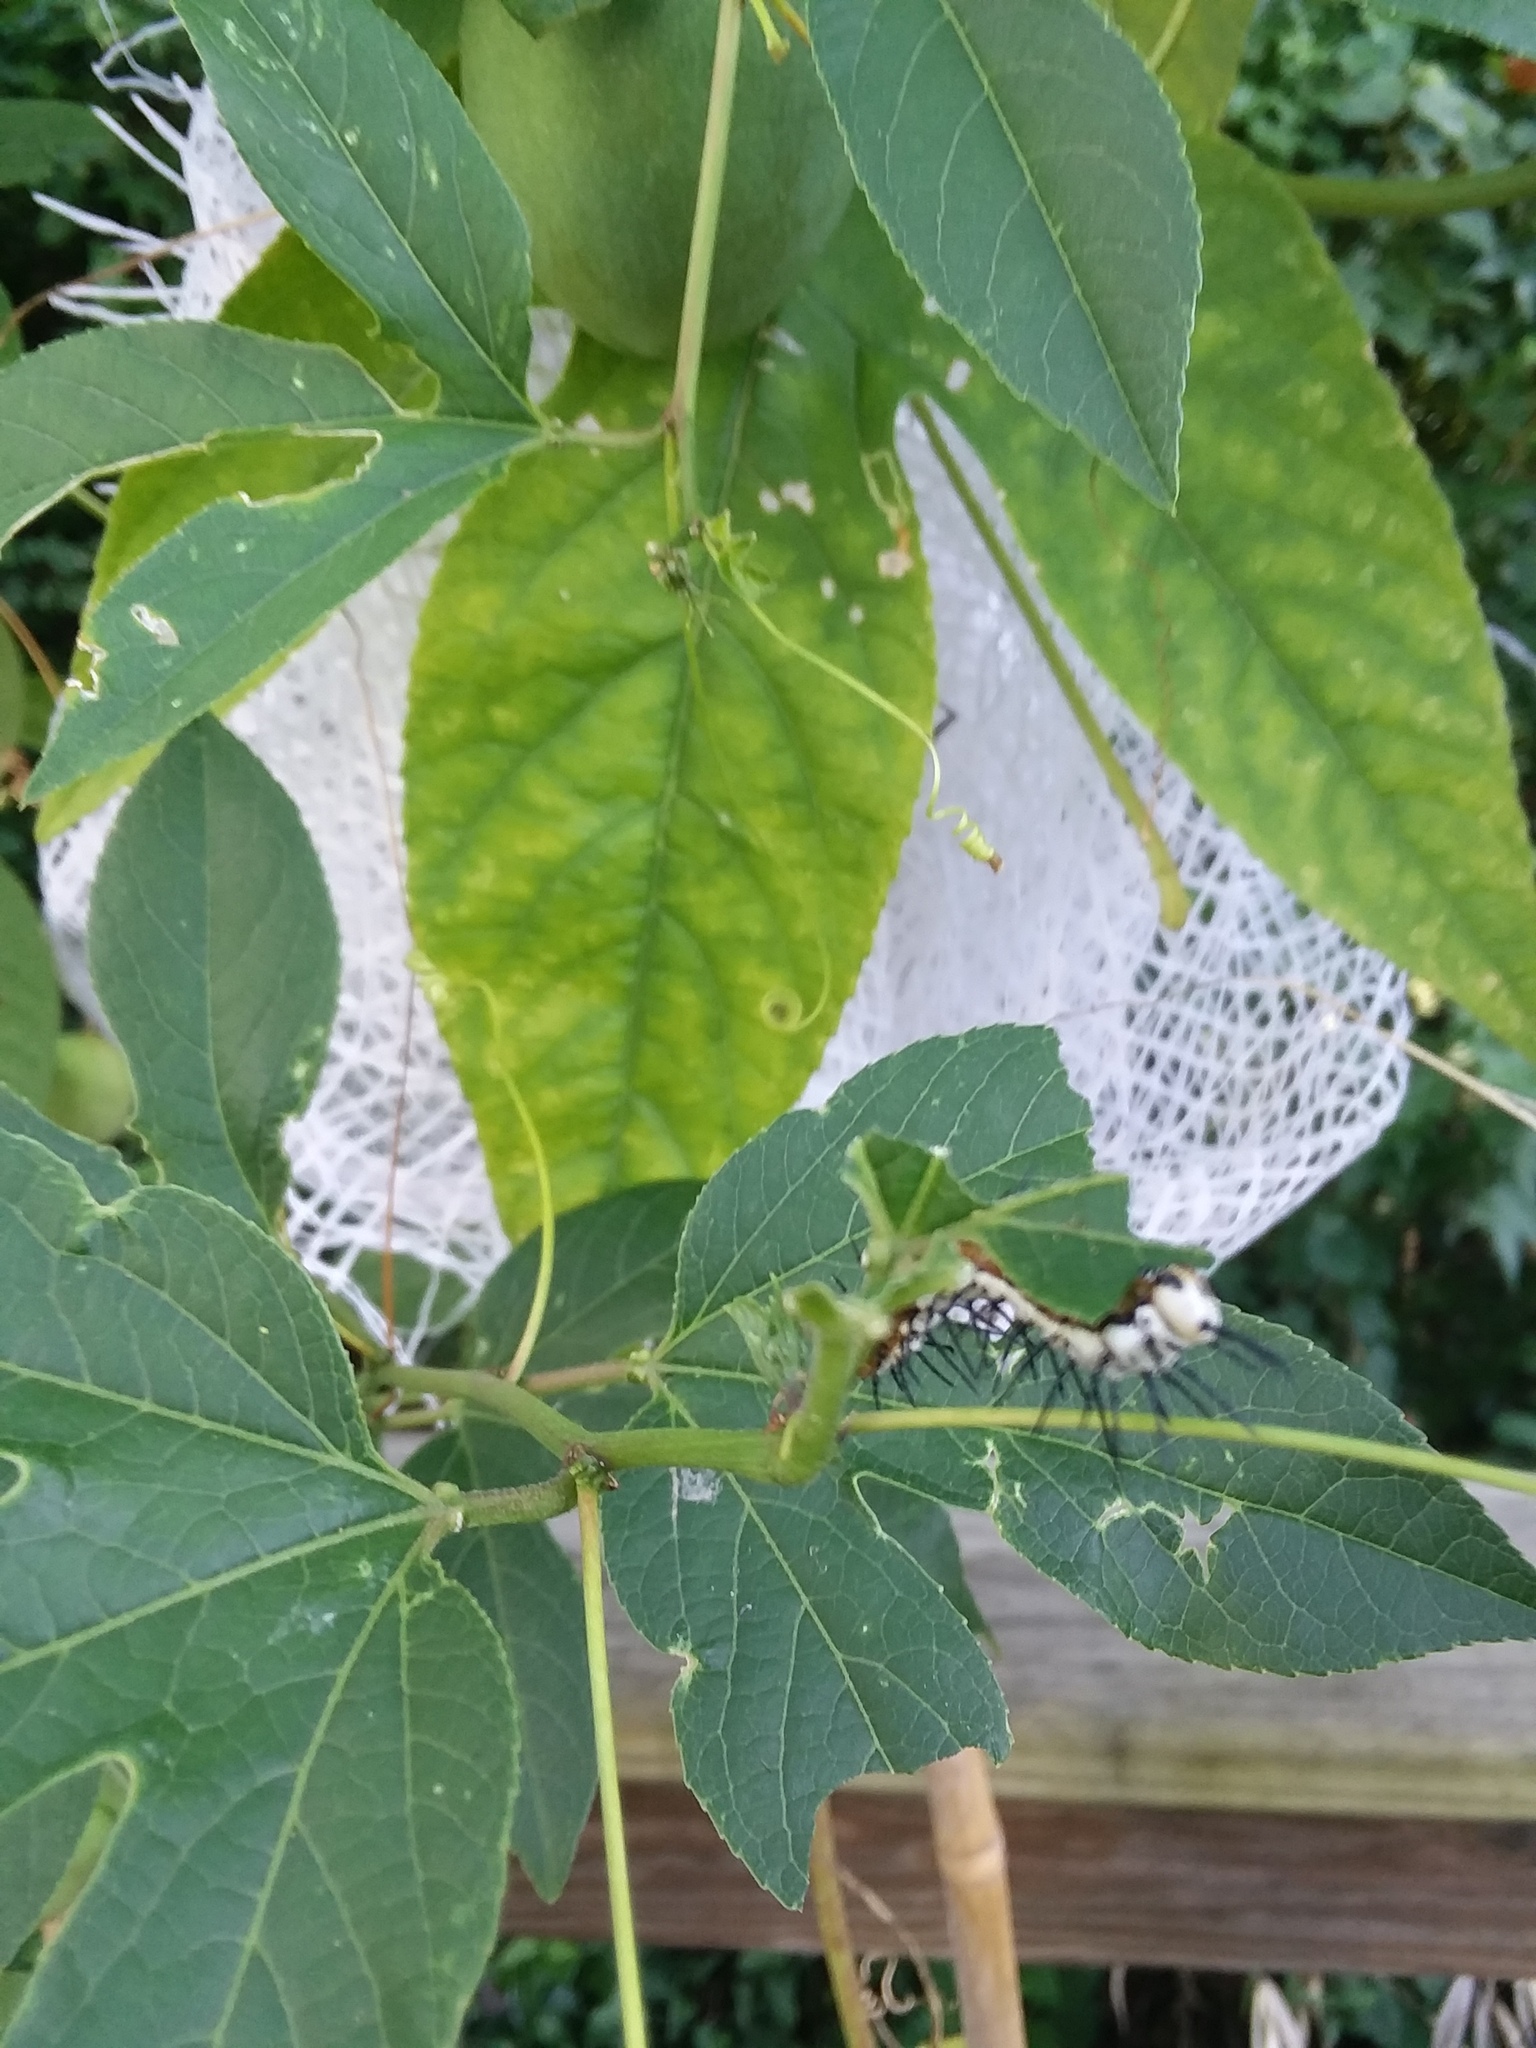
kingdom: Animalia
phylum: Arthropoda
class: Insecta
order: Lepidoptera
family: Nymphalidae
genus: Heliconius
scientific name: Heliconius charithonia
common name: Zebra long wing
